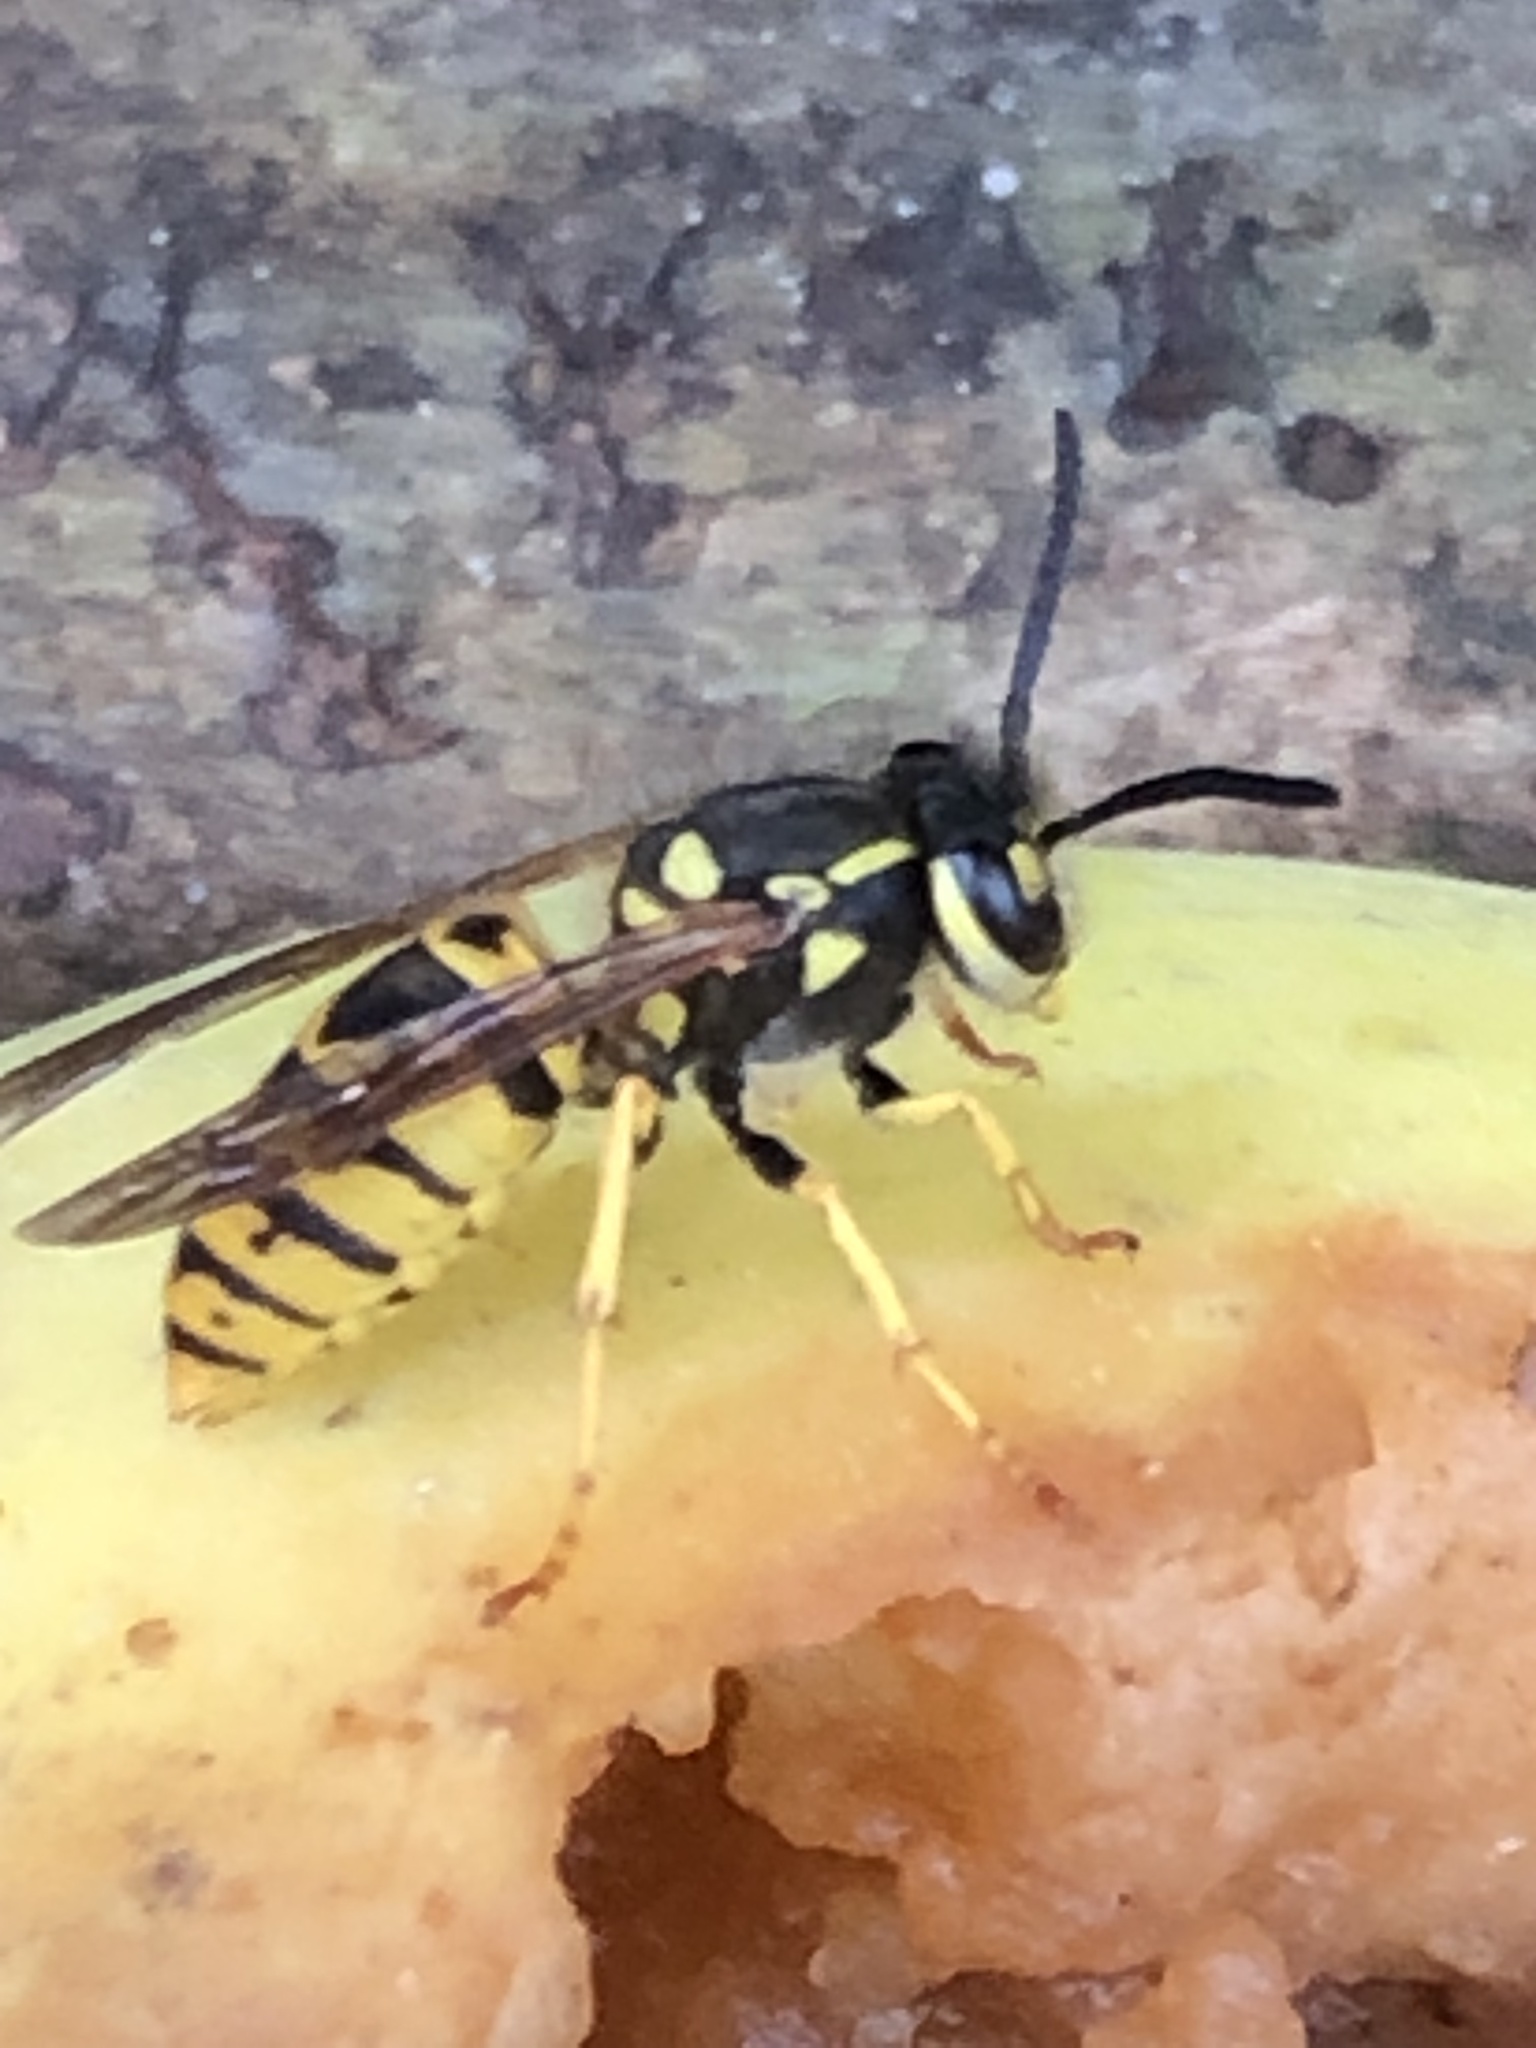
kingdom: Animalia
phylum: Arthropoda
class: Insecta
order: Hymenoptera
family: Vespidae
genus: Vespula
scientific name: Vespula germanica
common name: German wasp
